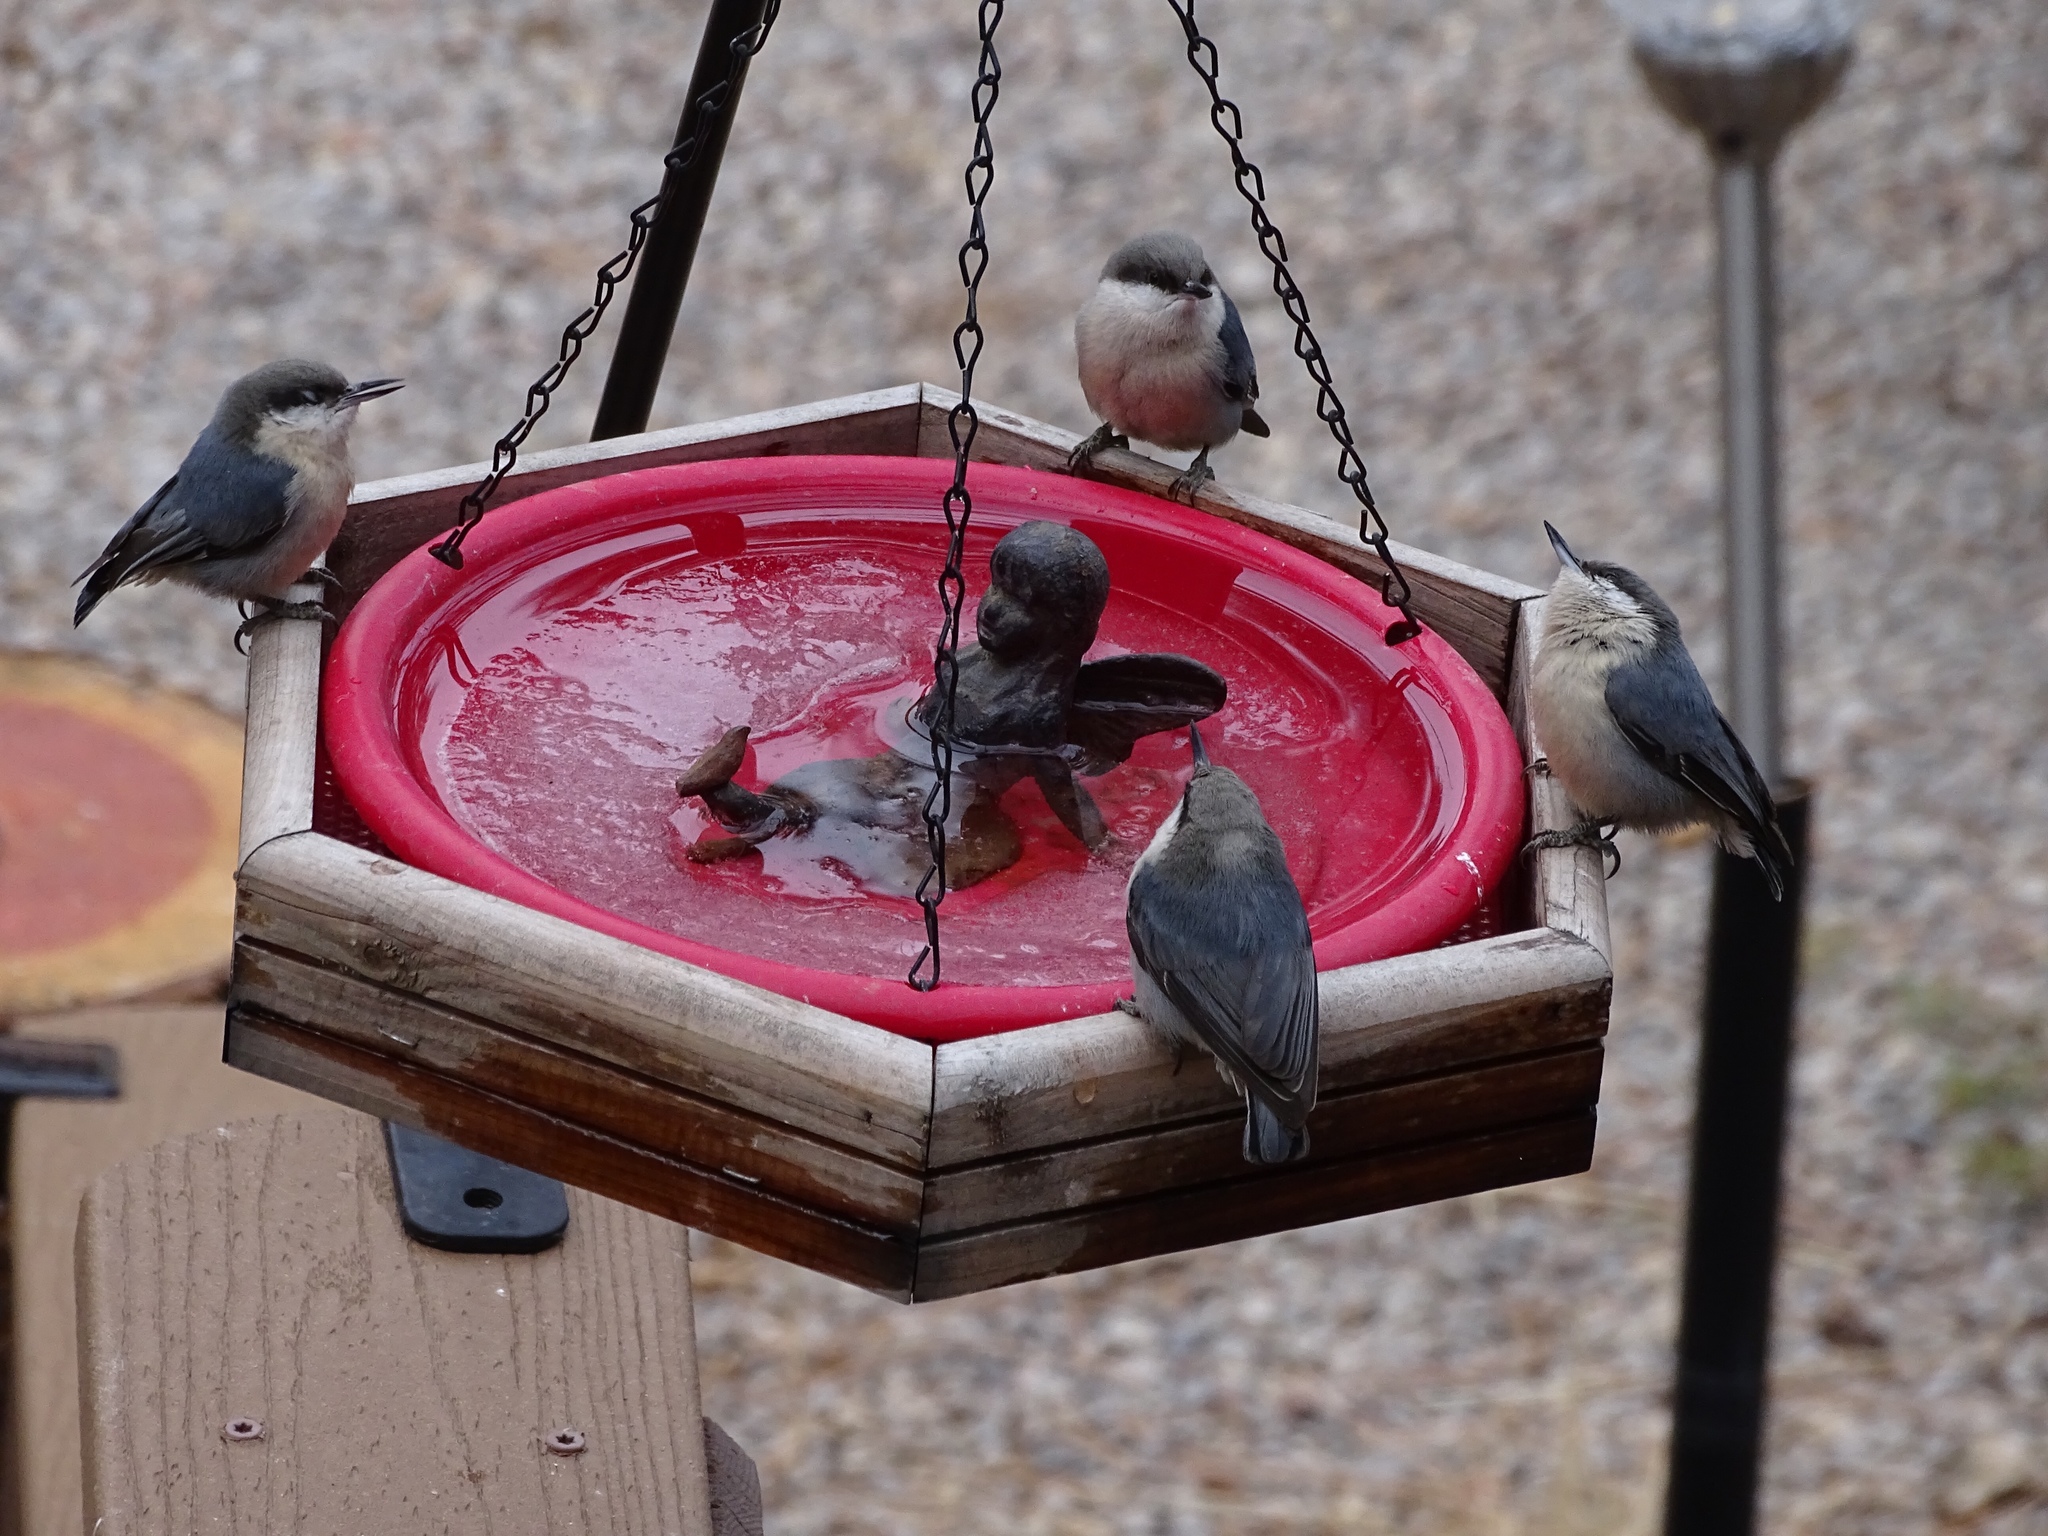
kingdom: Animalia
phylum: Chordata
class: Aves
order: Passeriformes
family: Sittidae
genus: Sitta
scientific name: Sitta pygmaea
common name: Pygmy nuthatch
